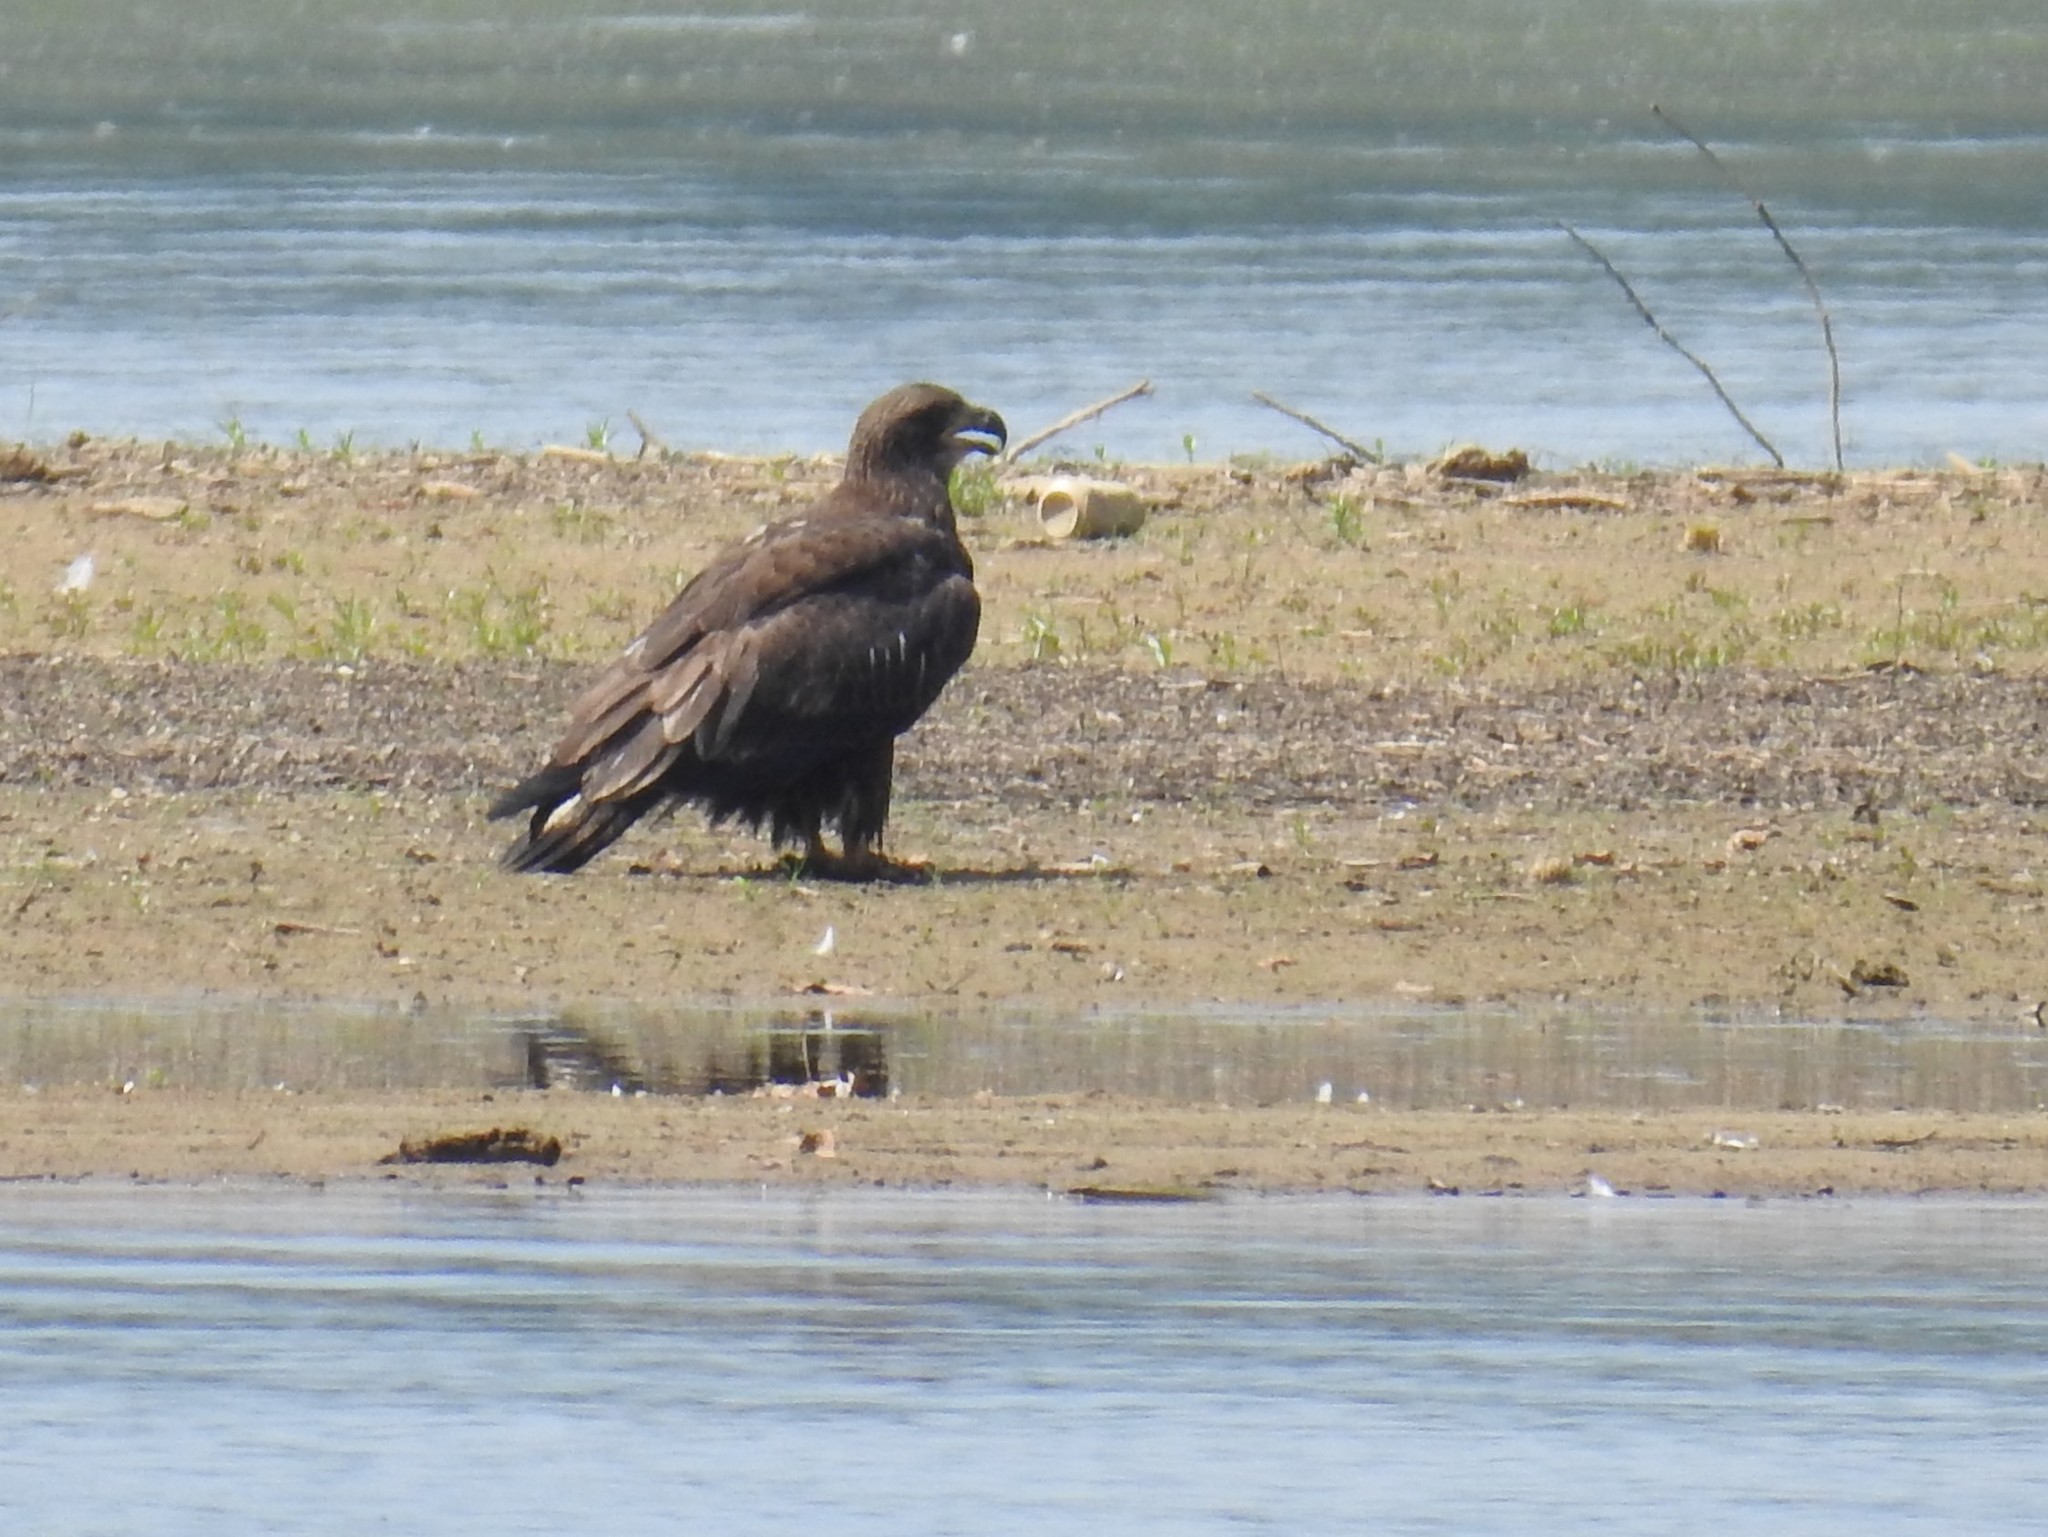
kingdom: Animalia
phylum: Chordata
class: Aves
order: Accipitriformes
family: Accipitridae
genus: Haliaeetus
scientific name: Haliaeetus leucocephalus
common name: Bald eagle
